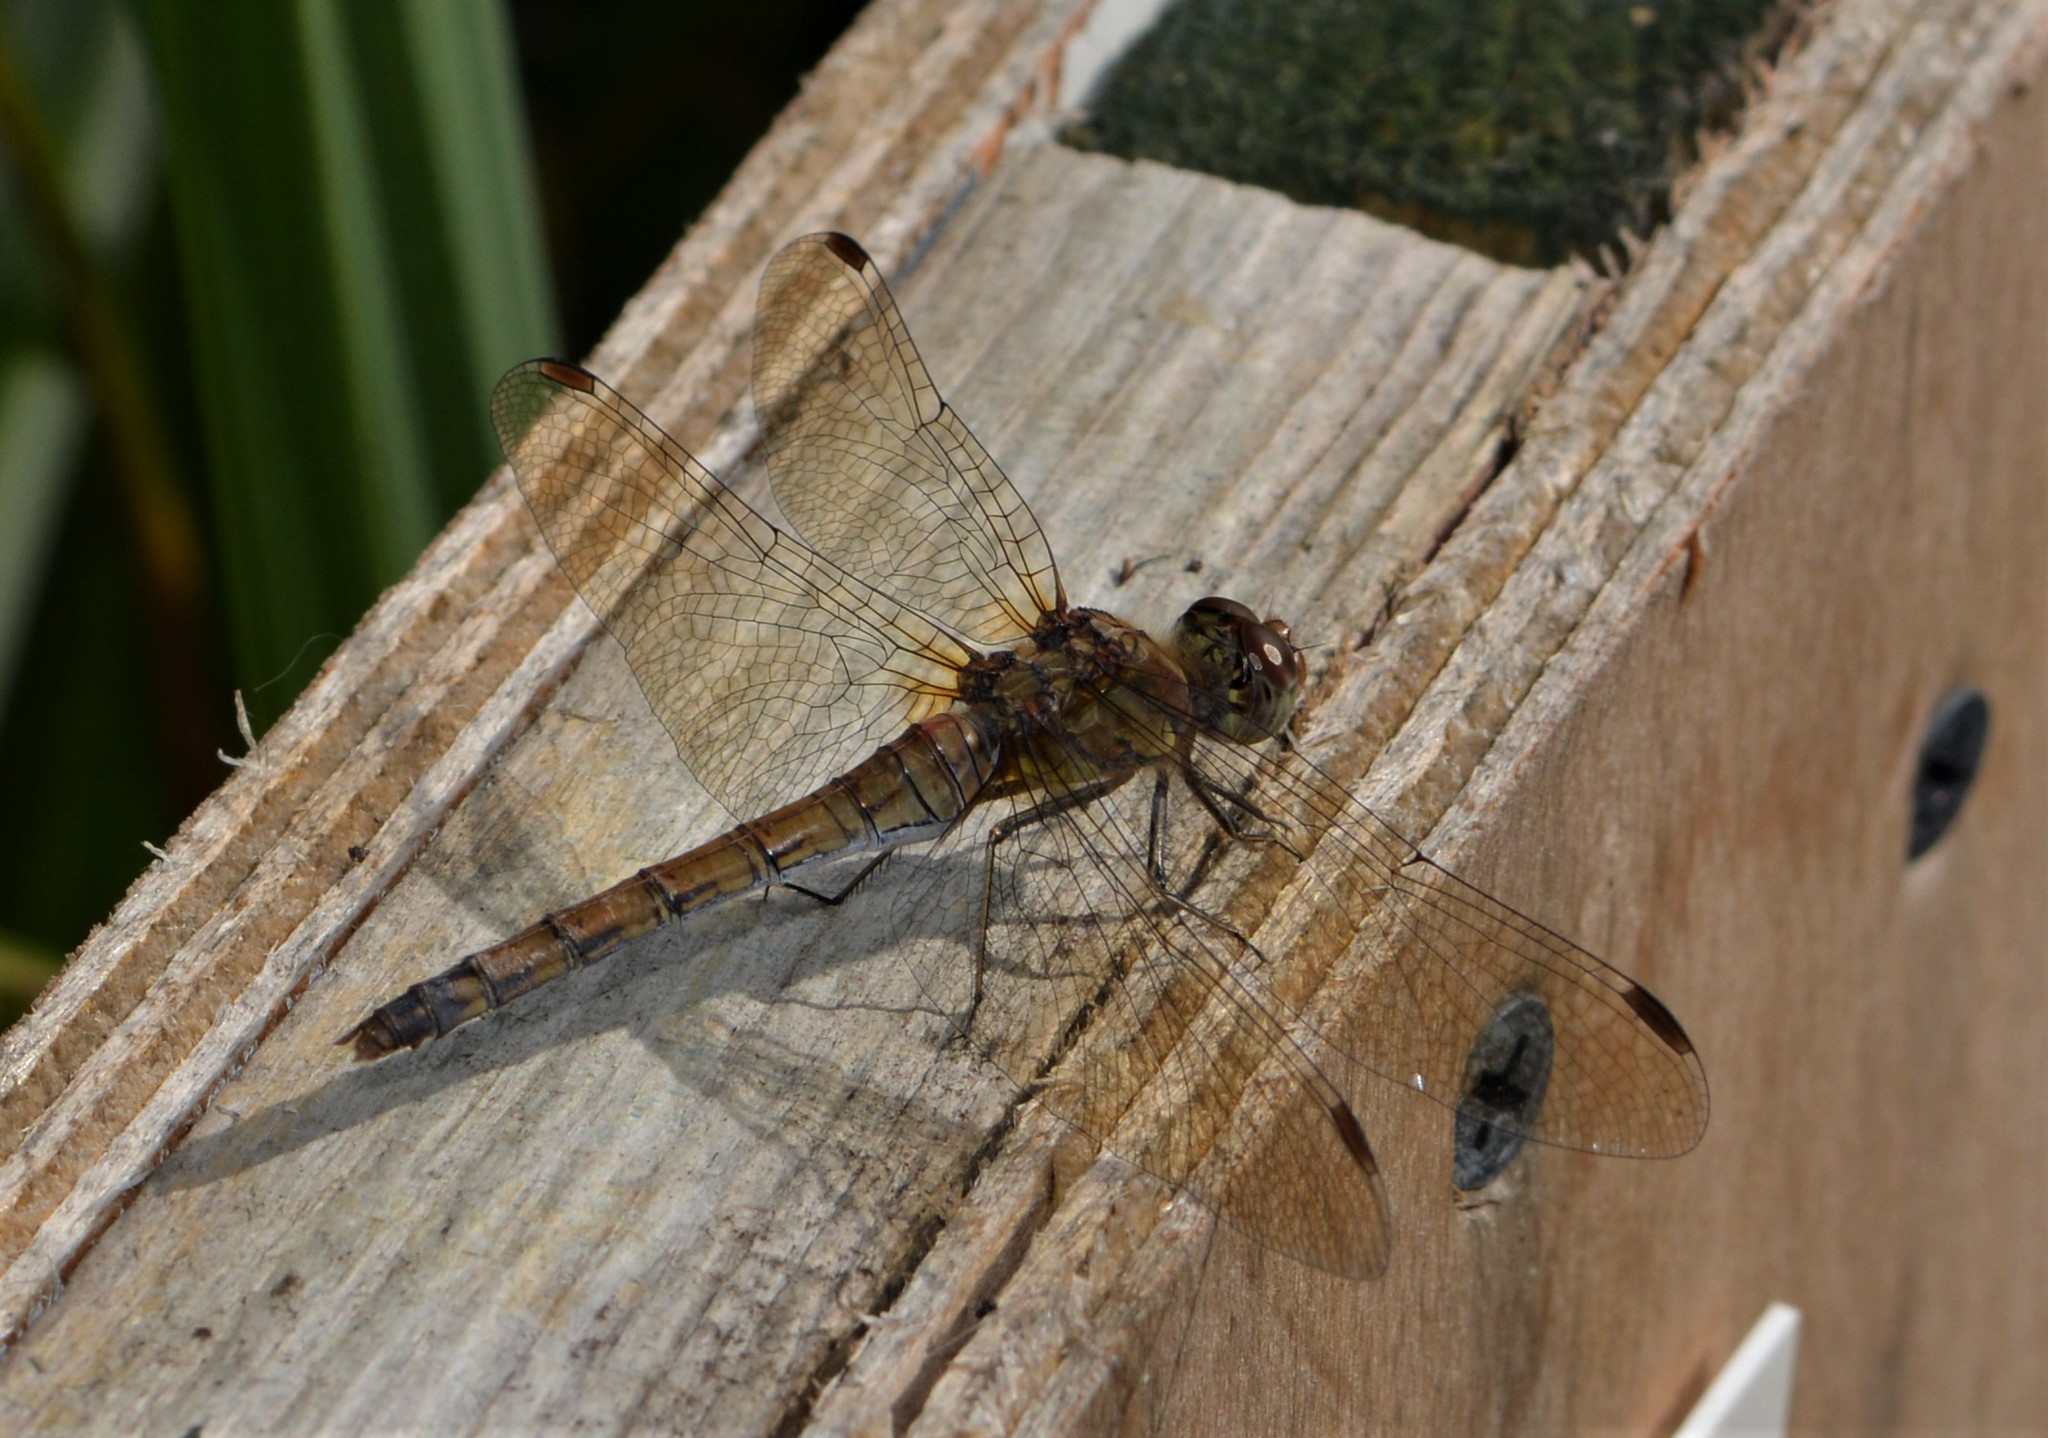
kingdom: Animalia
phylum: Arthropoda
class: Insecta
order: Odonata
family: Libellulidae
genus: Sympetrum
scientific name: Sympetrum striolatum
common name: Common darter
